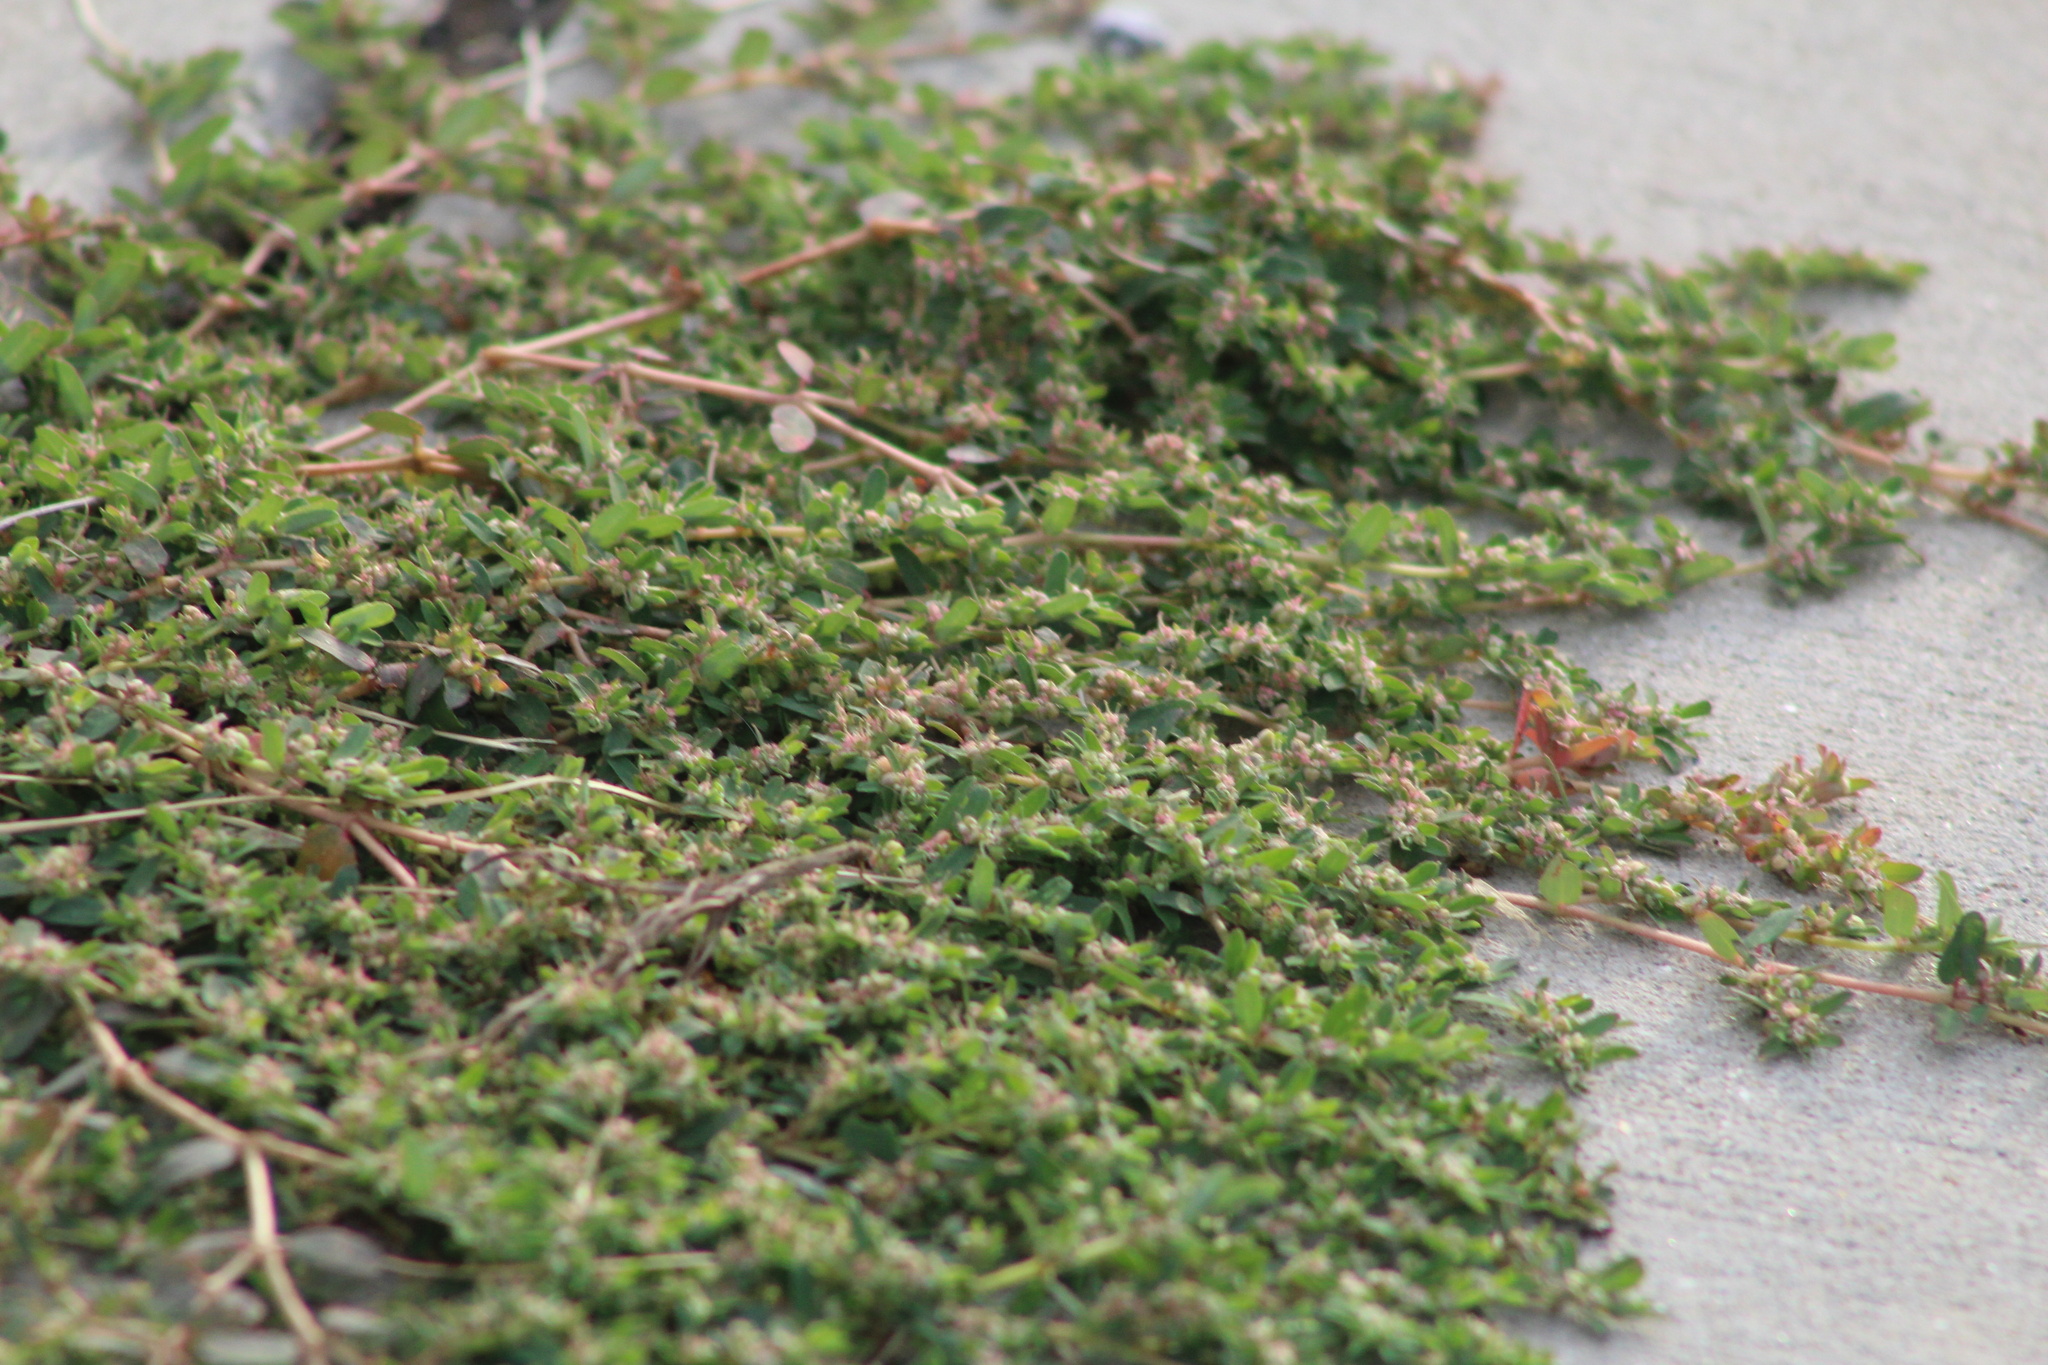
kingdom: Plantae
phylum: Tracheophyta
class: Magnoliopsida
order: Malpighiales
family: Euphorbiaceae
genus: Euphorbia
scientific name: Euphorbia maculata
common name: Spotted spurge
